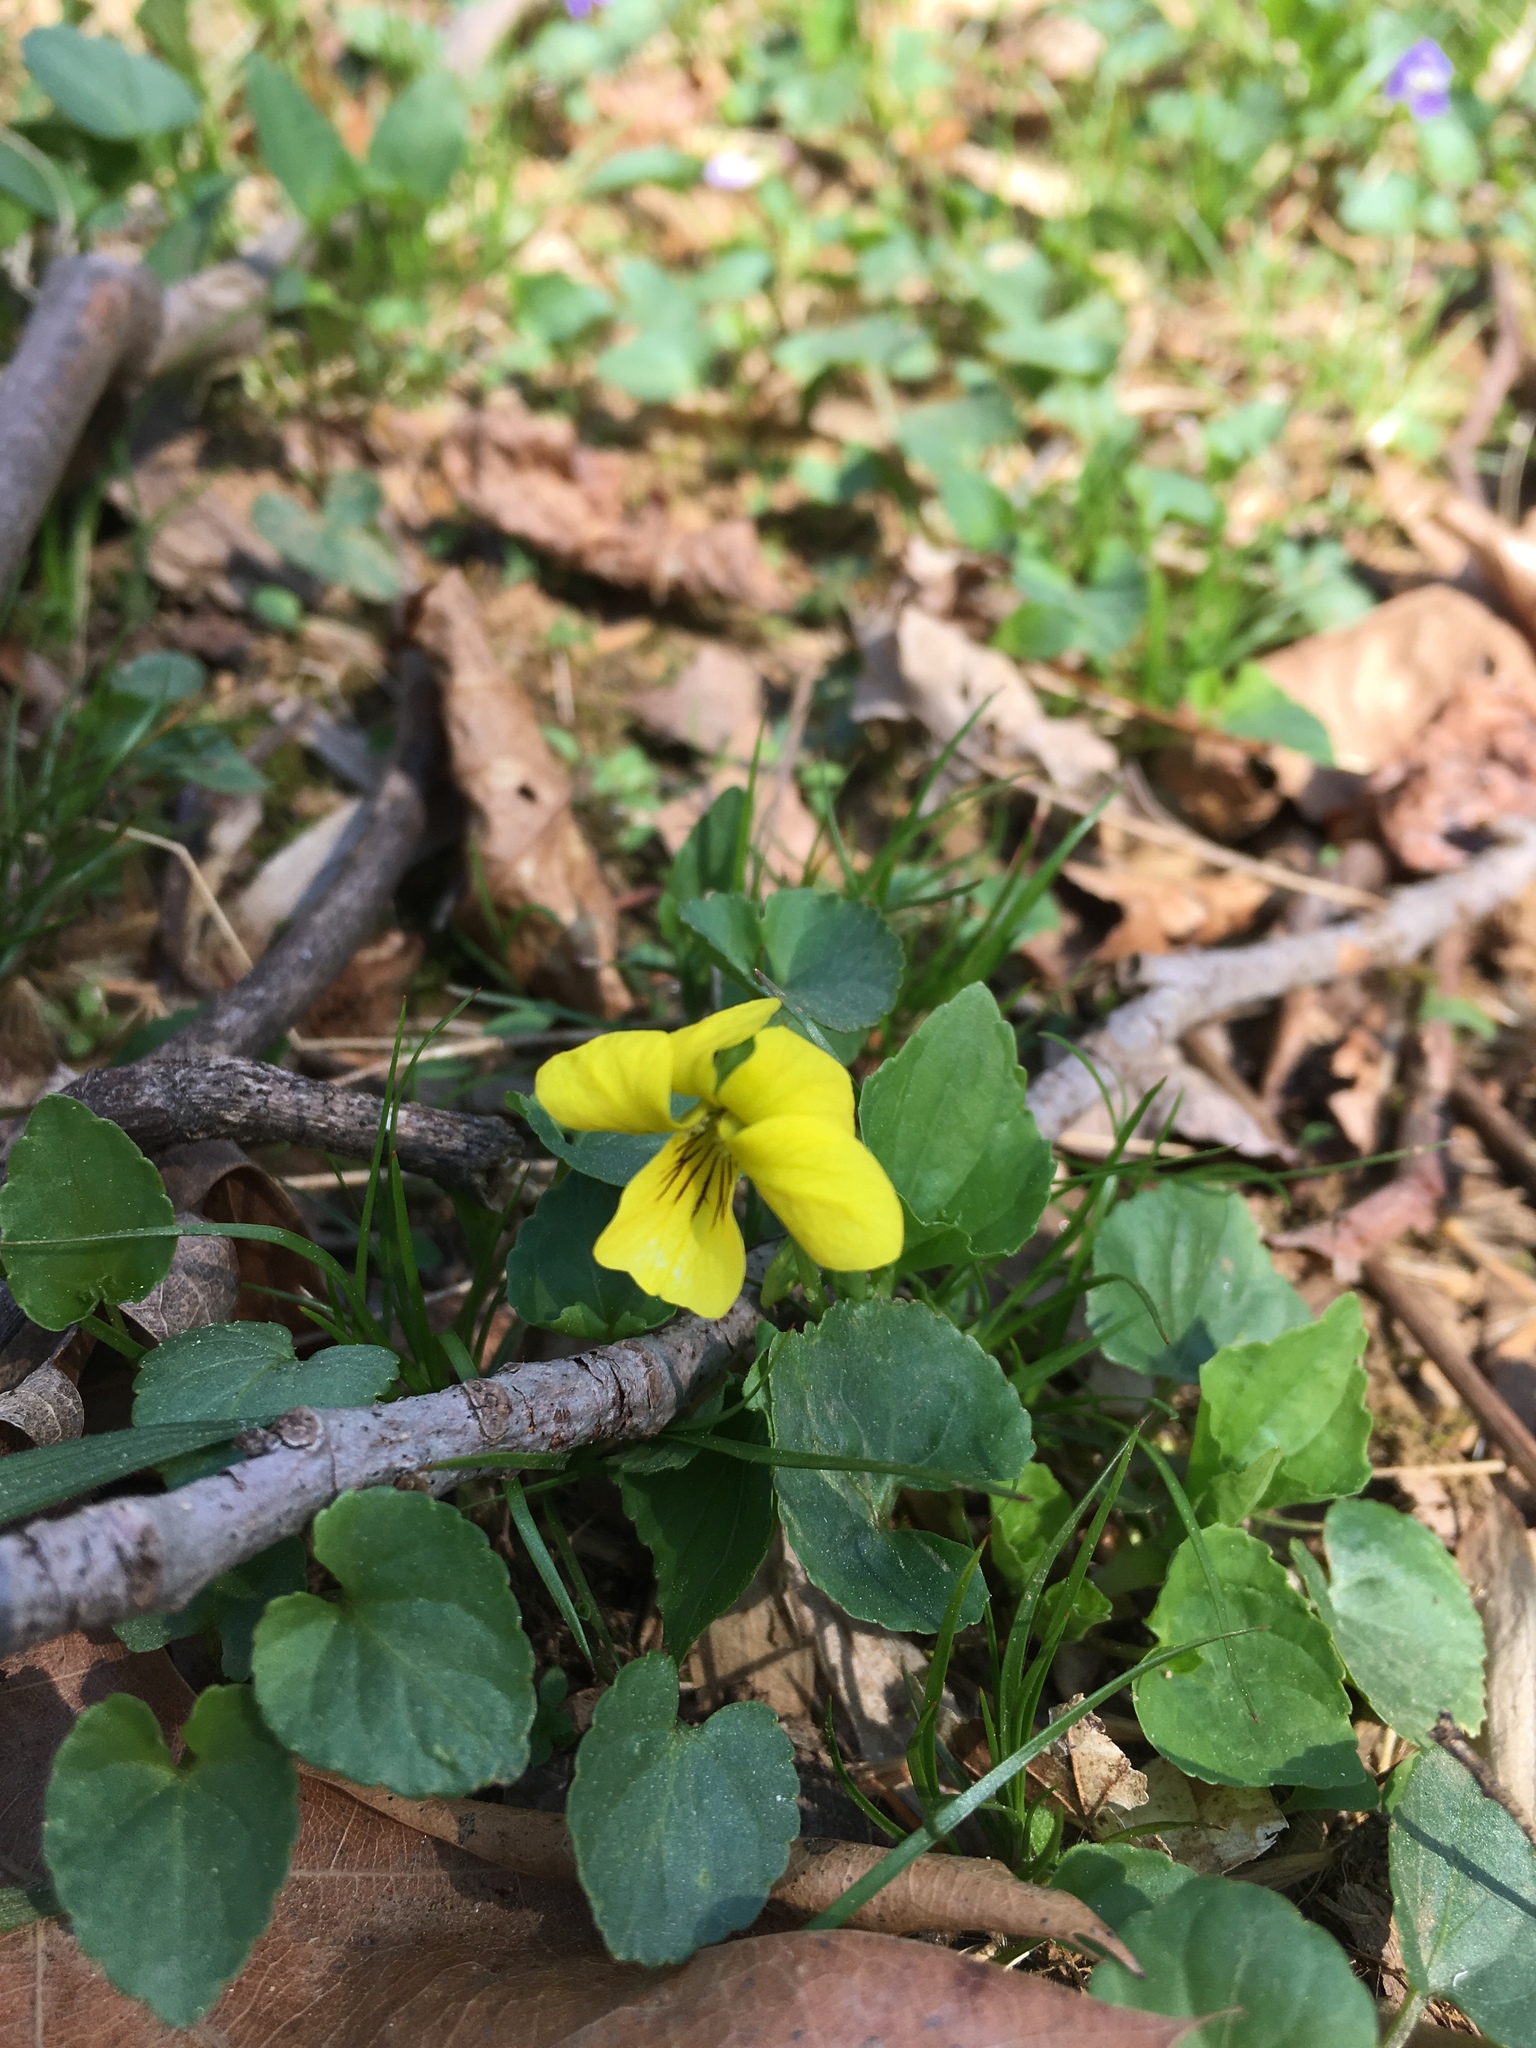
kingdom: Plantae
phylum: Tracheophyta
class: Magnoliopsida
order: Malpighiales
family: Violaceae
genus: Viola
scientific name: Viola eriocarpa
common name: Smooth yellow violet
